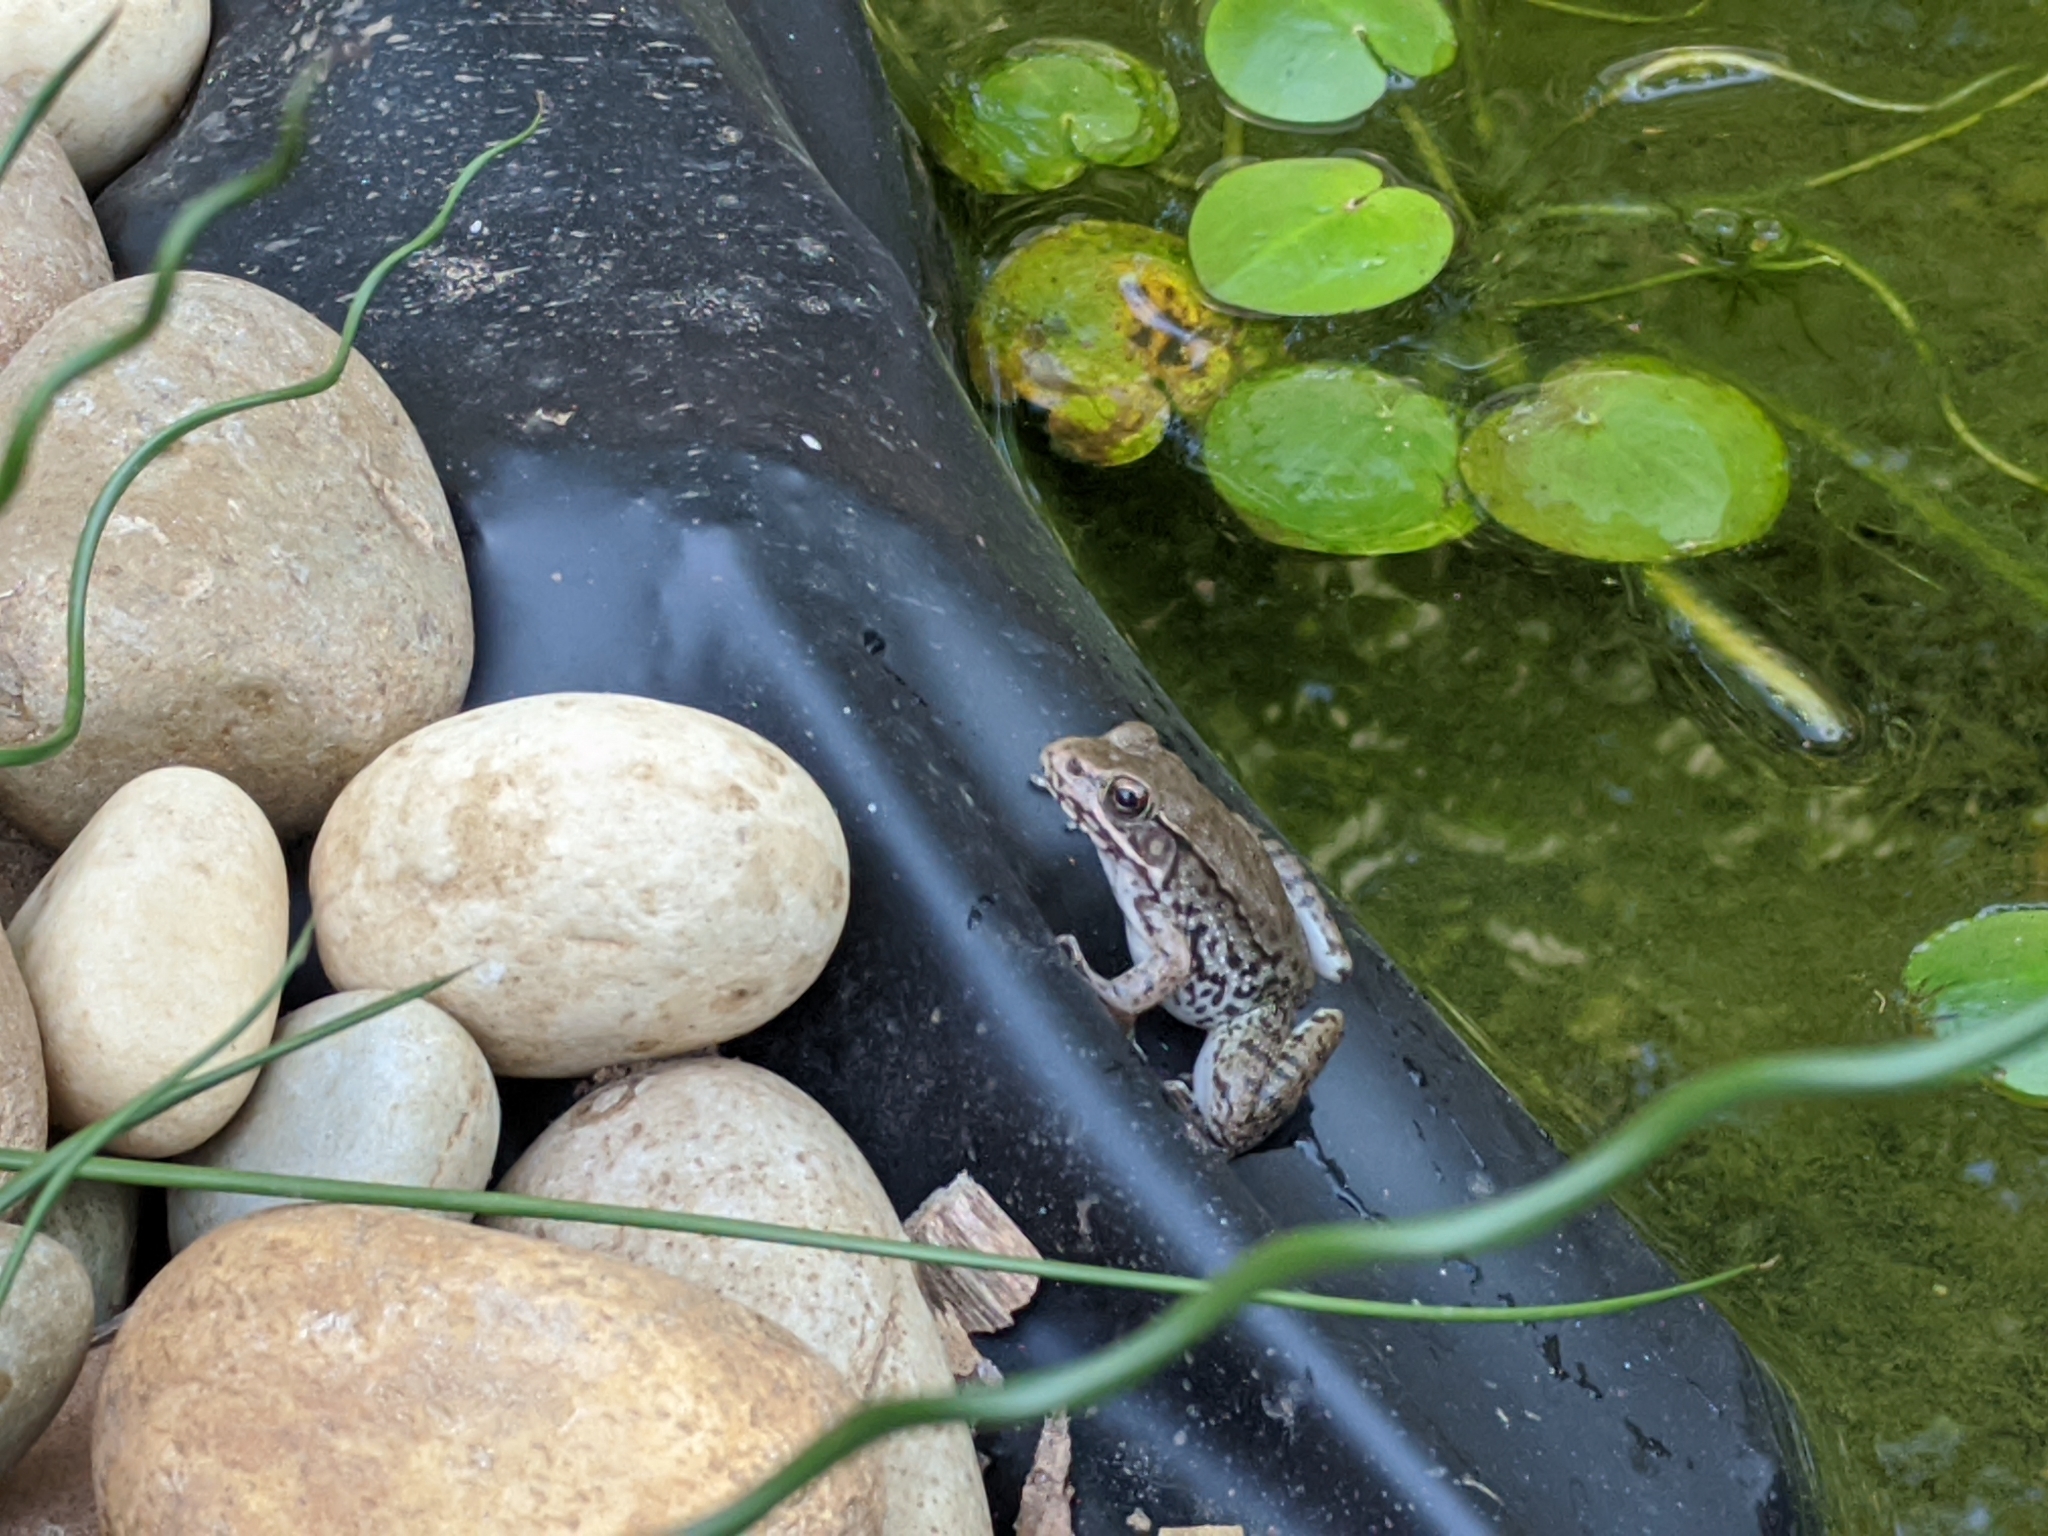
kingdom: Animalia
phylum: Chordata
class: Amphibia
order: Anura
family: Ranidae
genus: Lithobates
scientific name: Lithobates clamitans
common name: Green frog
